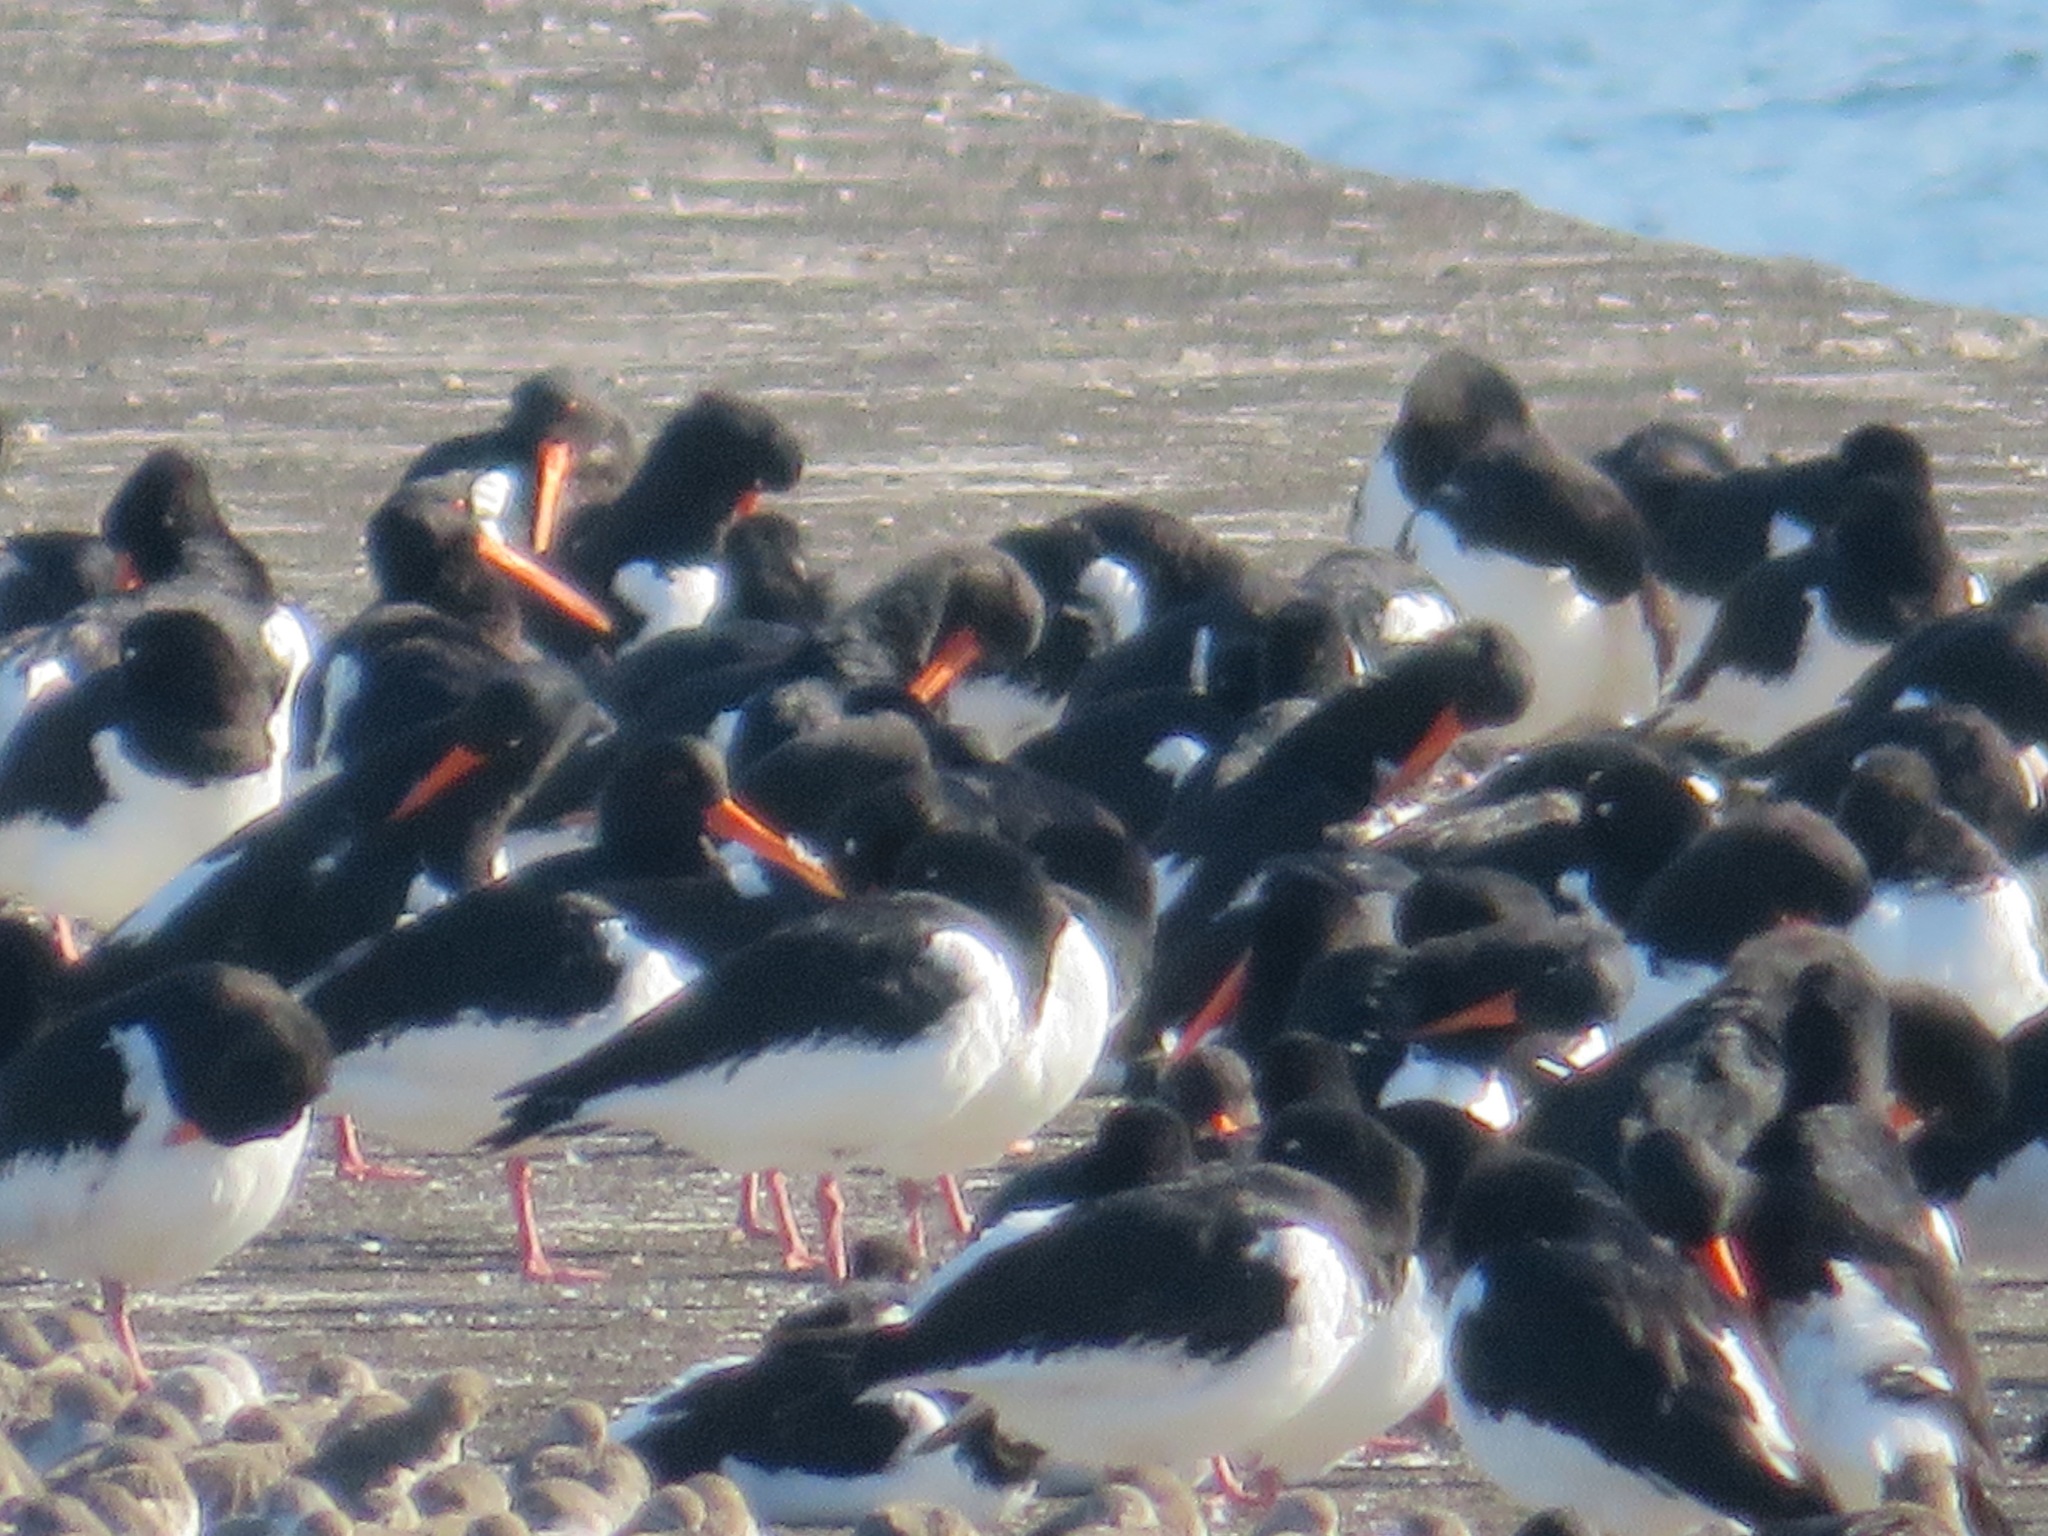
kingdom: Animalia
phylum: Chordata
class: Aves
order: Charadriiformes
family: Haematopodidae
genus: Haematopus
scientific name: Haematopus ostralegus
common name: Eurasian oystercatcher
